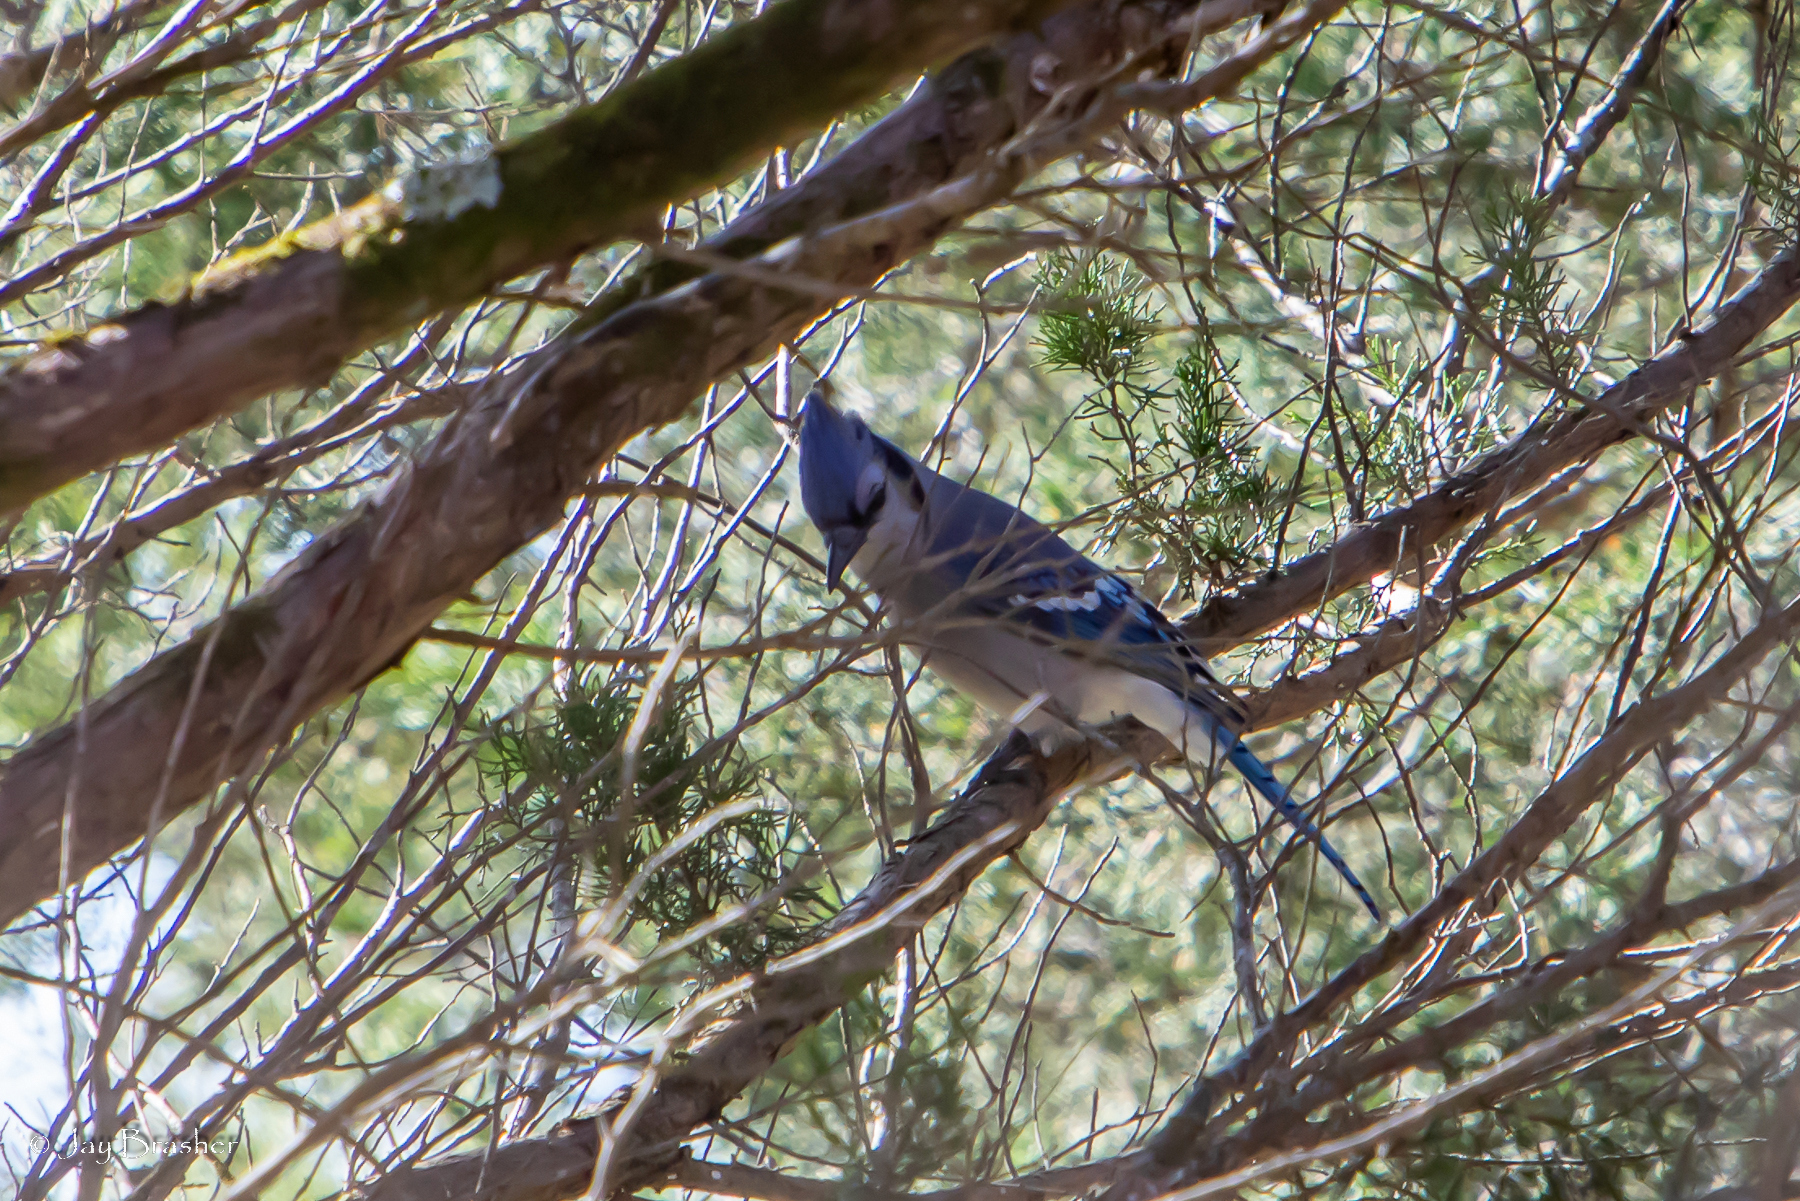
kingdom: Animalia
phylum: Chordata
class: Aves
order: Passeriformes
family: Corvidae
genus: Cyanocitta
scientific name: Cyanocitta cristata
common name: Blue jay
